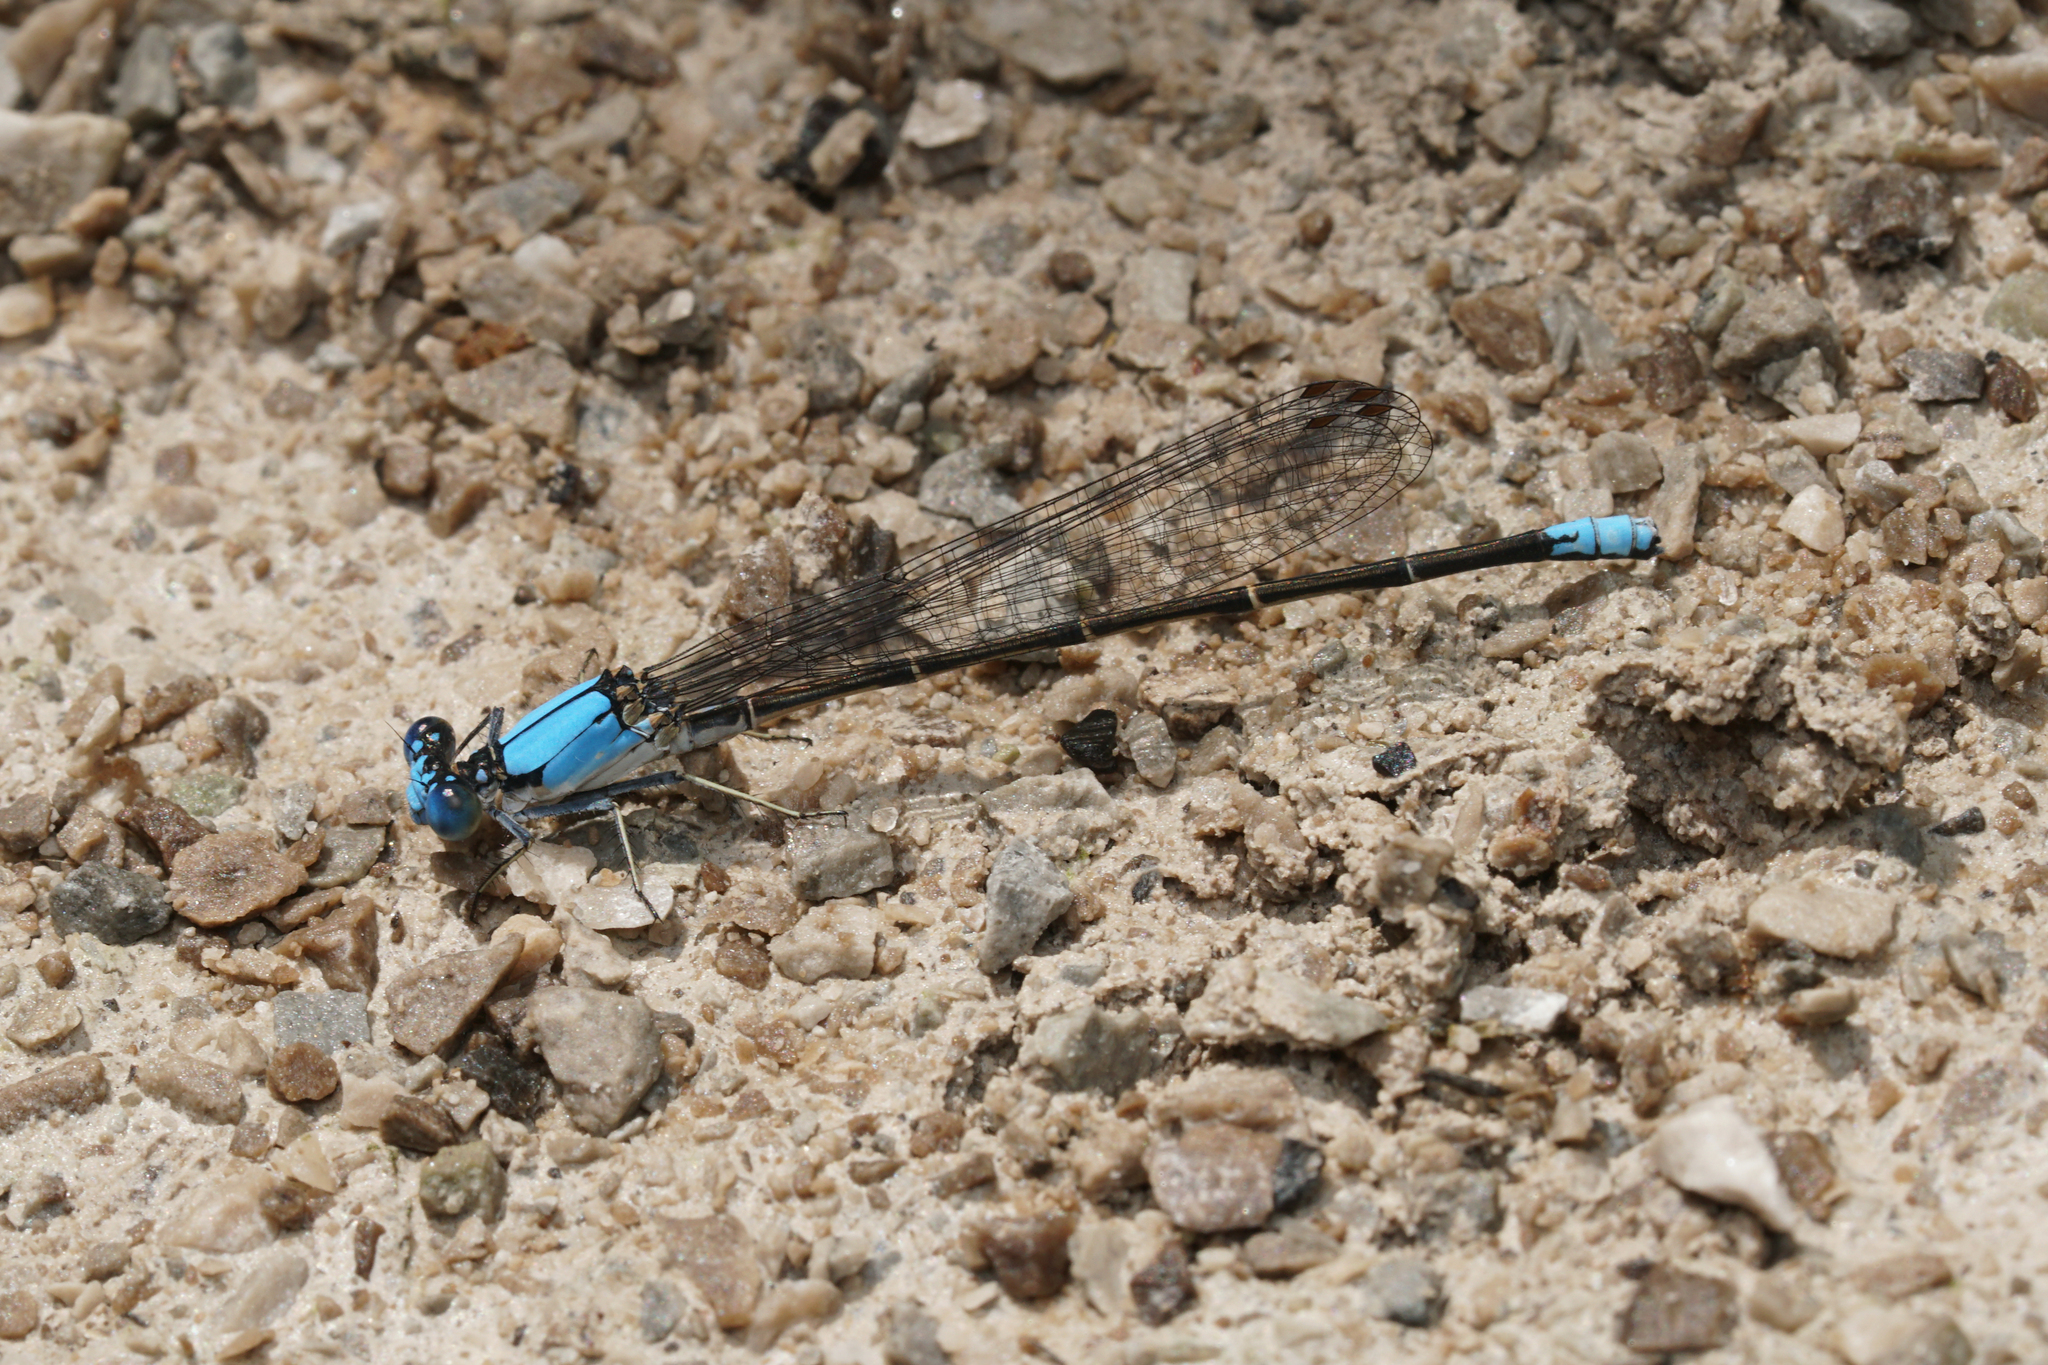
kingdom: Animalia
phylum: Arthropoda
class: Insecta
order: Odonata
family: Coenagrionidae
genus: Argia
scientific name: Argia apicalis
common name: Blue-fronted dancer
